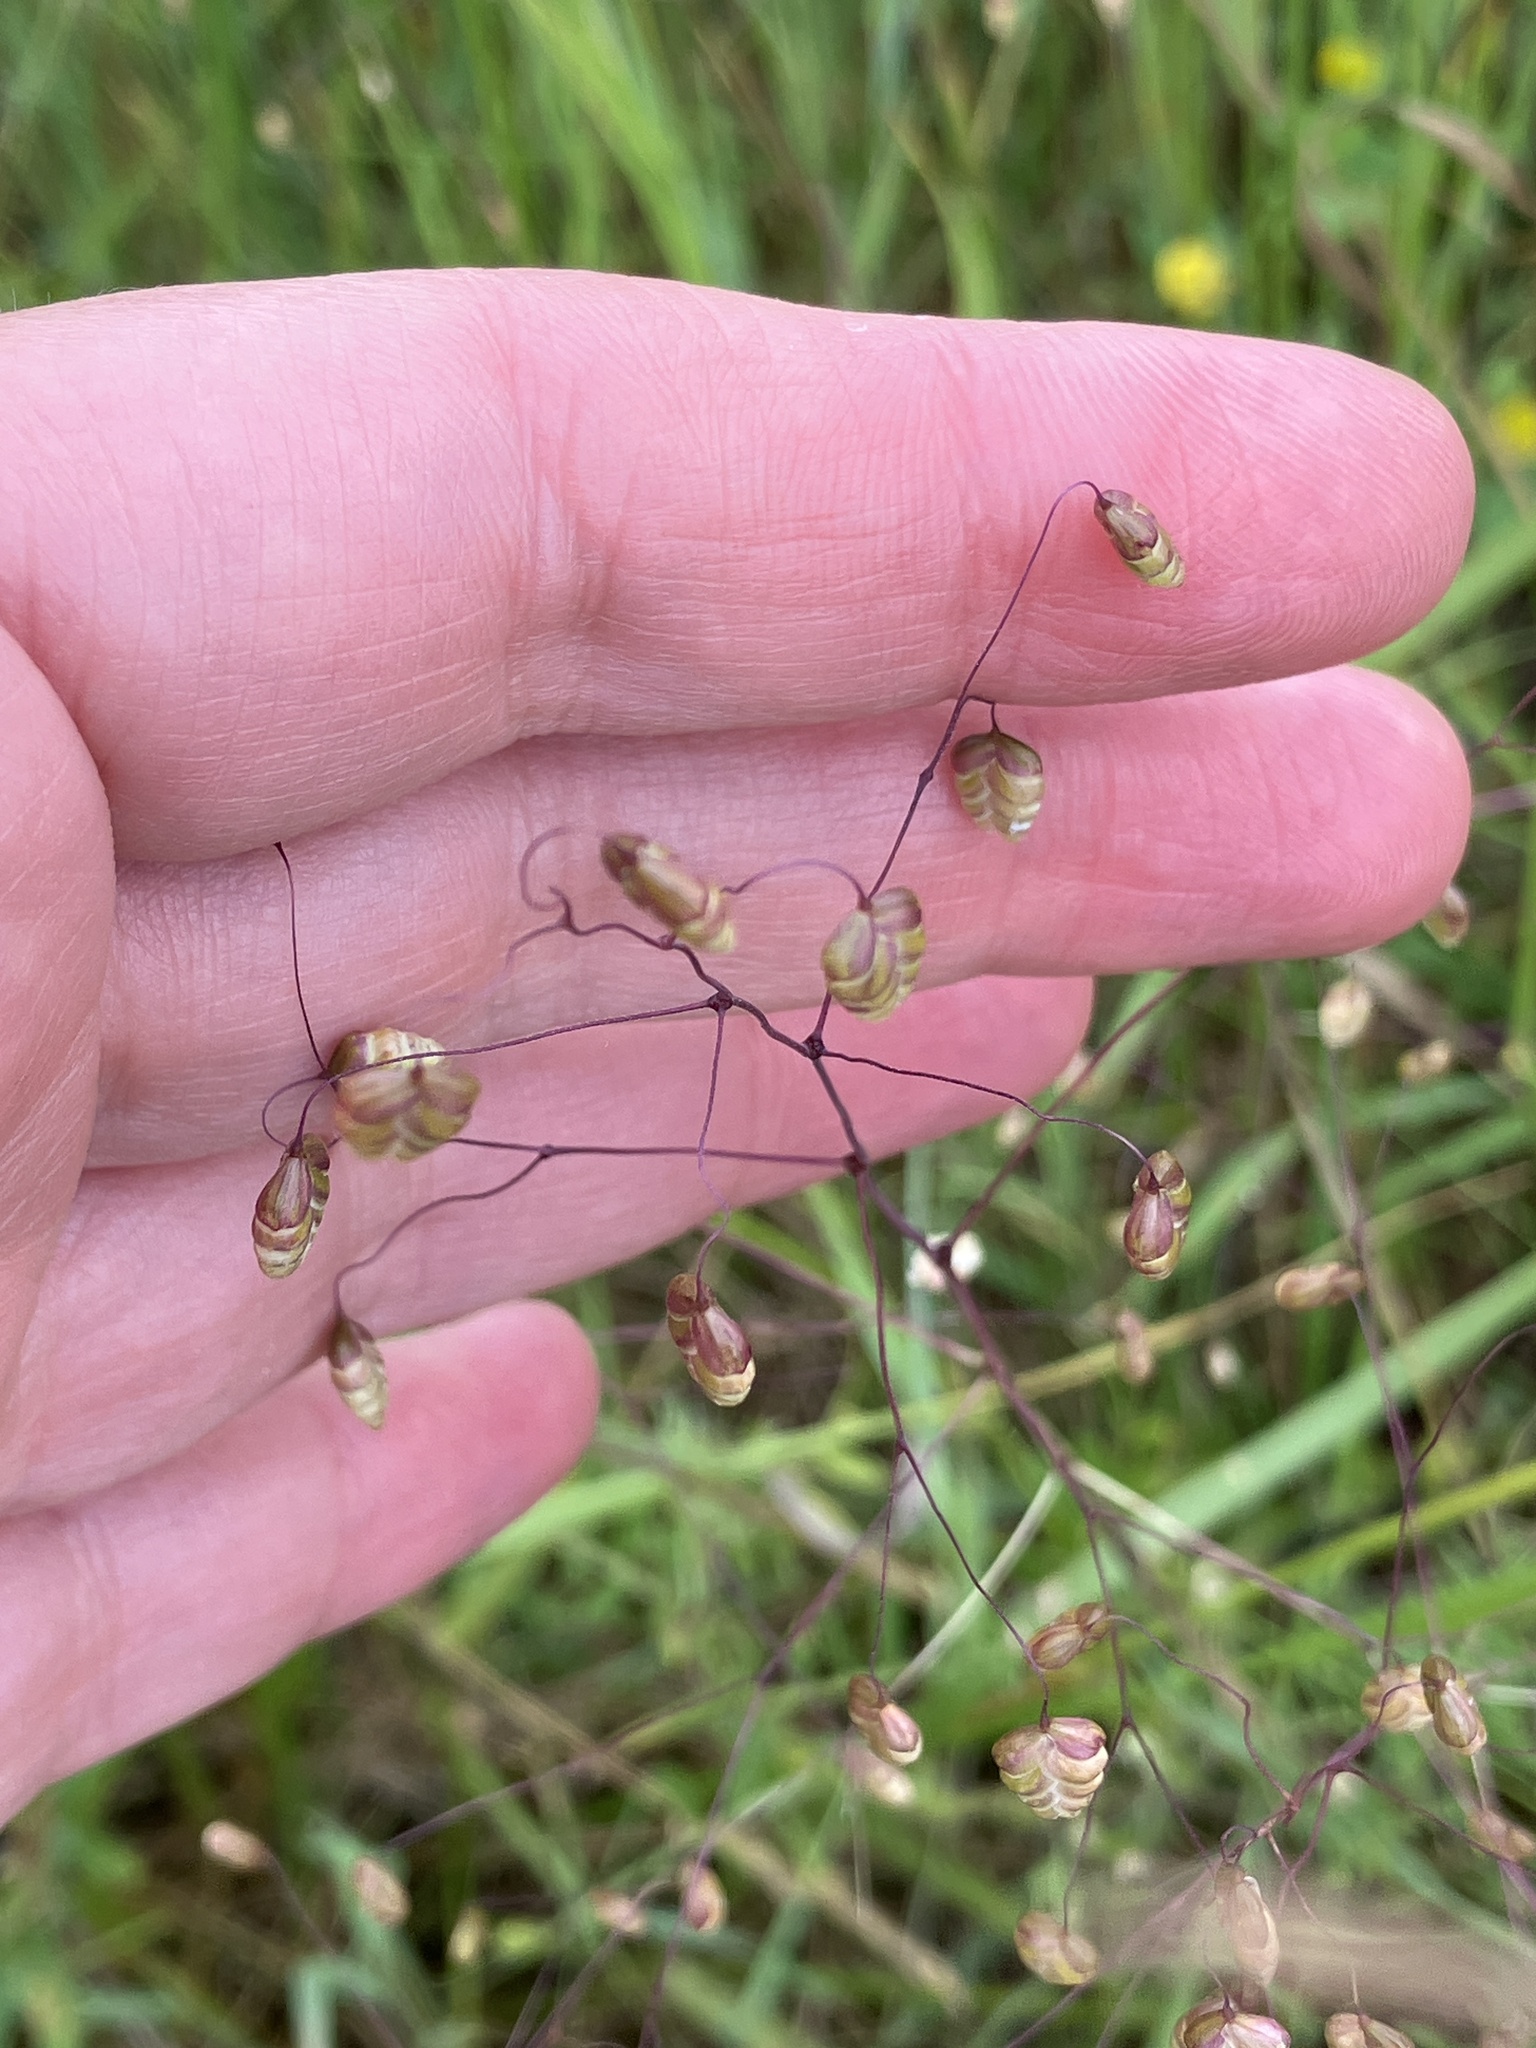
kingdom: Plantae
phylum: Tracheophyta
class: Liliopsida
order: Poales
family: Poaceae
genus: Briza
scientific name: Briza media
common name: Quaking grass
